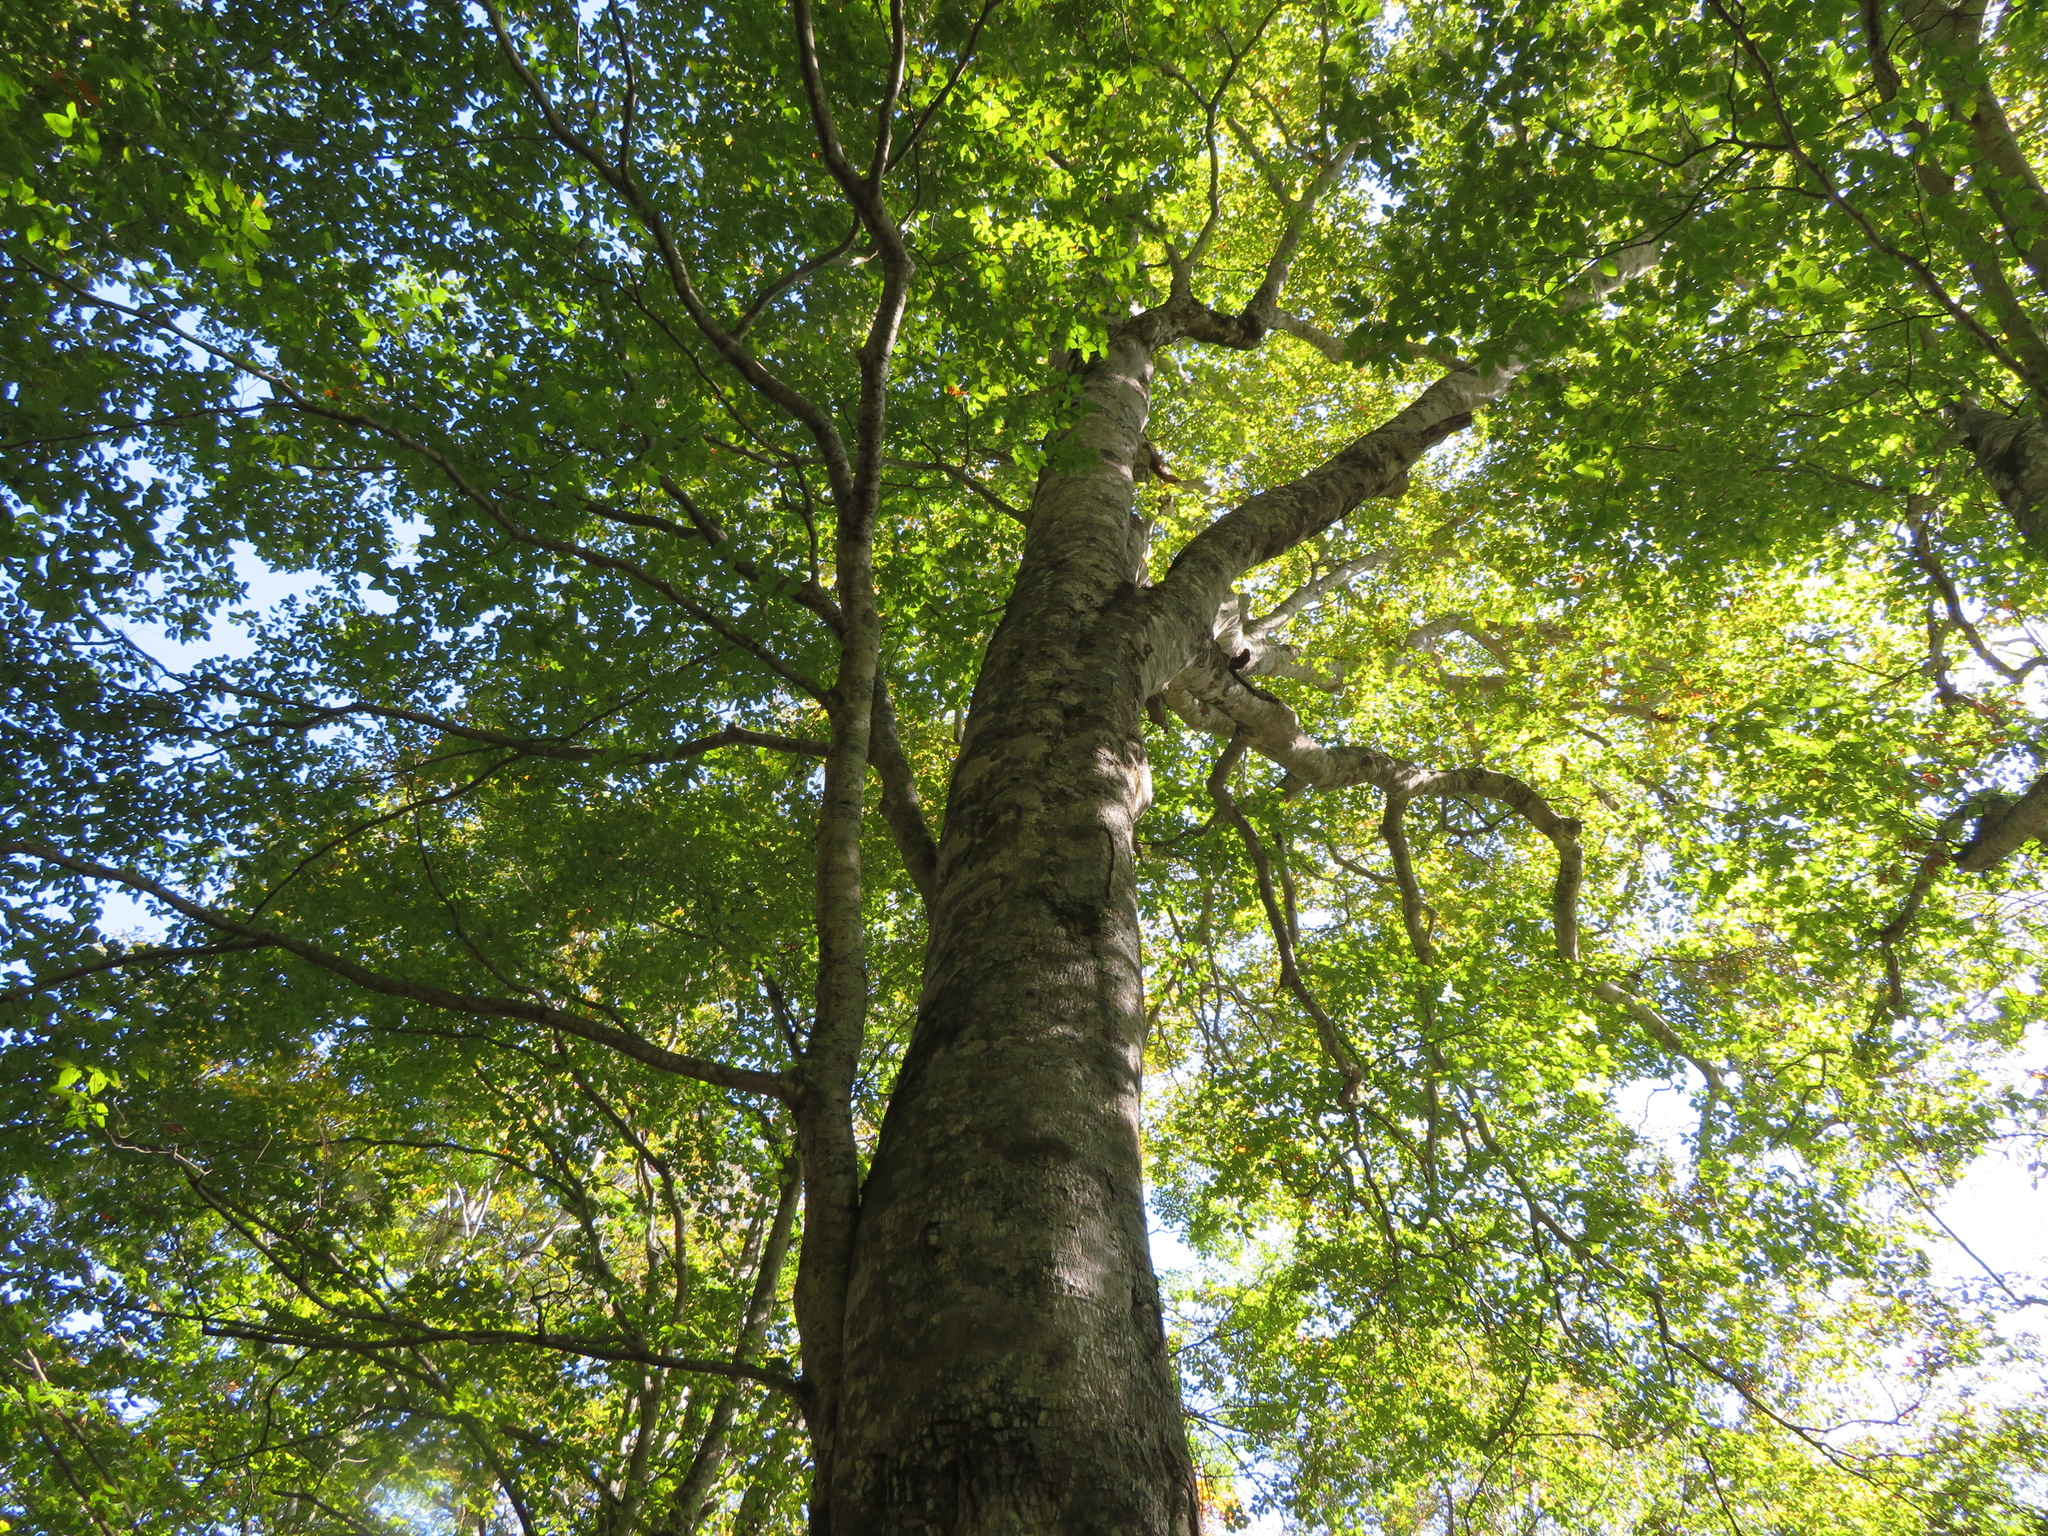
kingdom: Plantae
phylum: Tracheophyta
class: Magnoliopsida
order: Fagales
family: Fagaceae
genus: Fagus
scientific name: Fagus crenata
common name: Japanese beech
